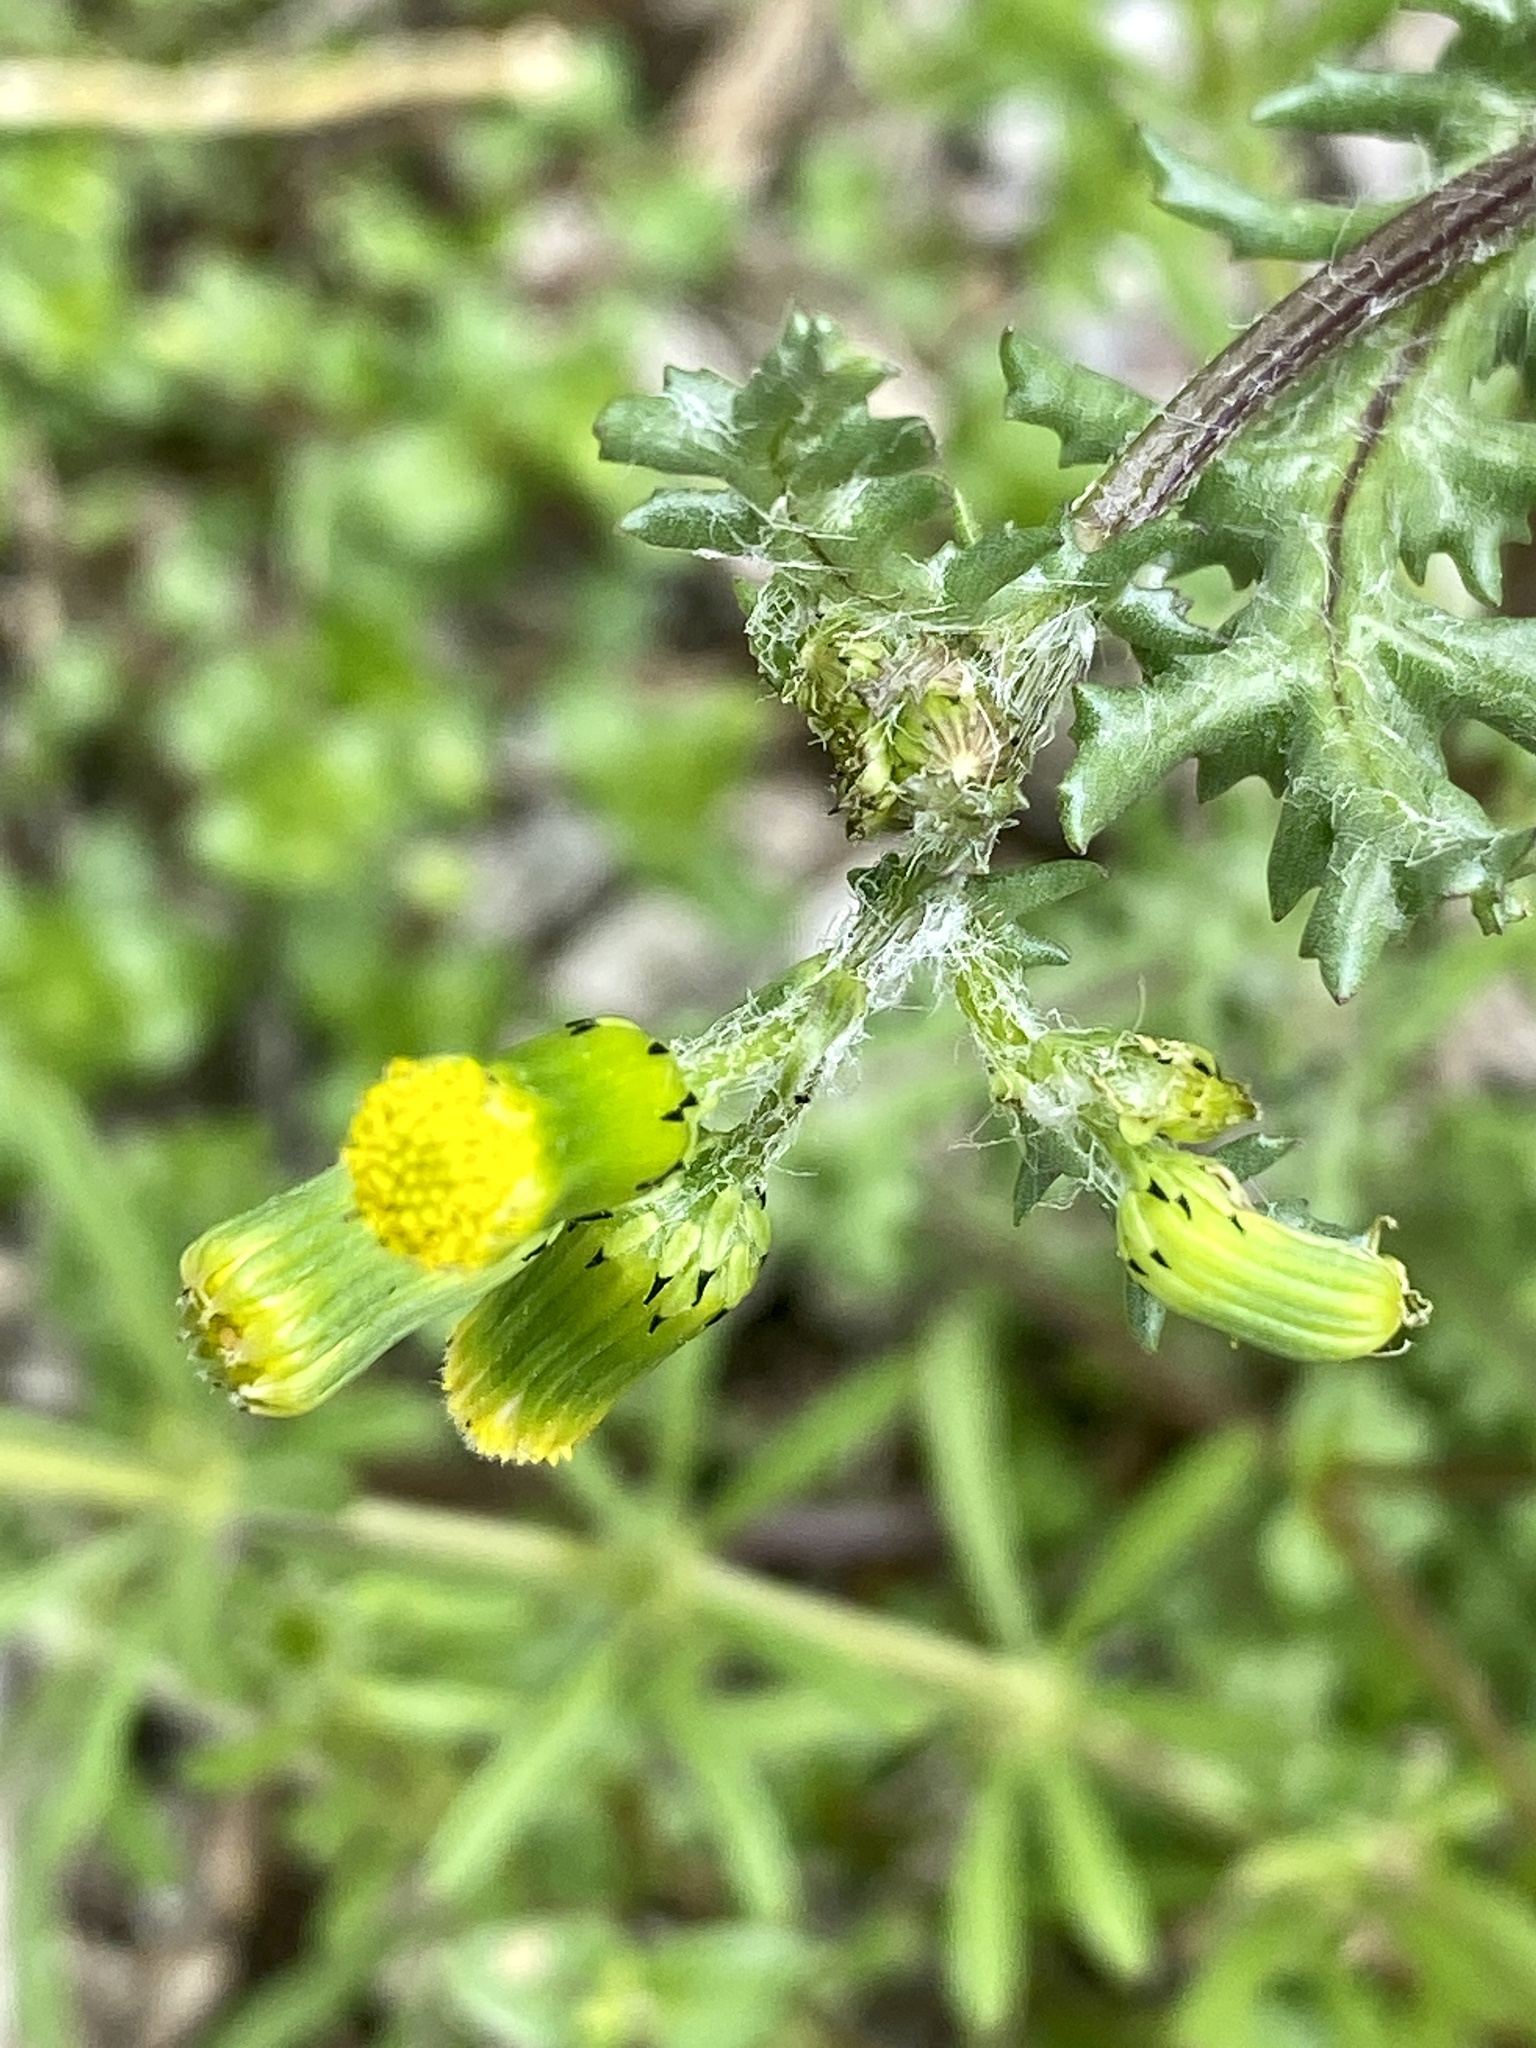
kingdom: Plantae
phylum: Tracheophyta
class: Magnoliopsida
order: Asterales
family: Asteraceae
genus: Senecio
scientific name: Senecio vulgaris
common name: Old-man-in-the-spring
